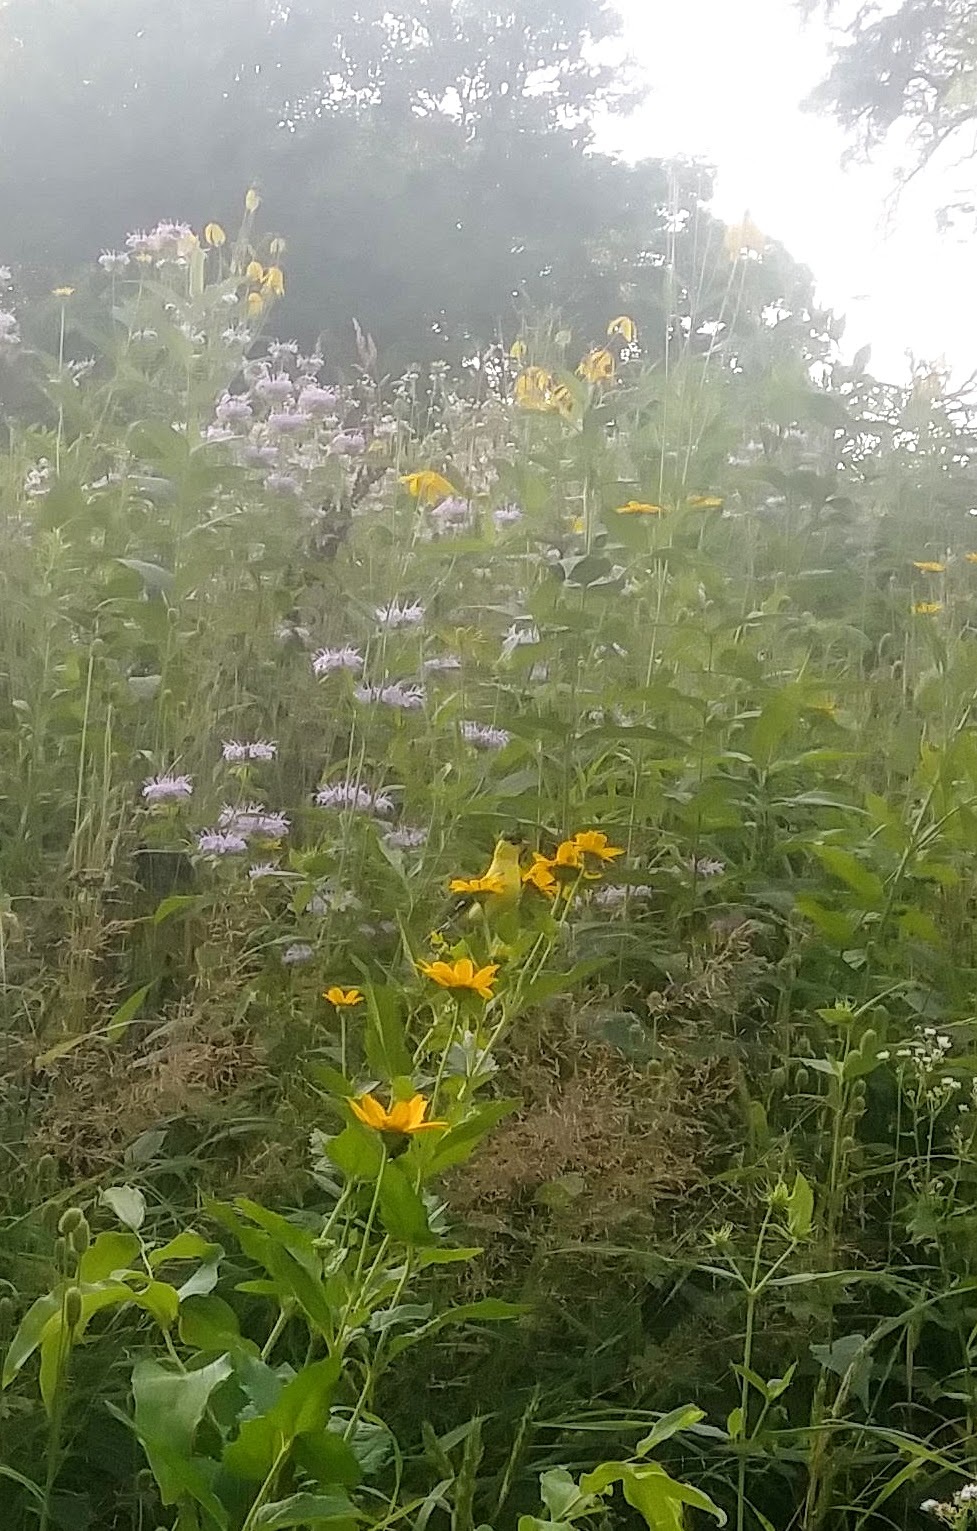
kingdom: Animalia
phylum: Chordata
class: Aves
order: Passeriformes
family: Fringillidae
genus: Spinus
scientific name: Spinus tristis
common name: American goldfinch
